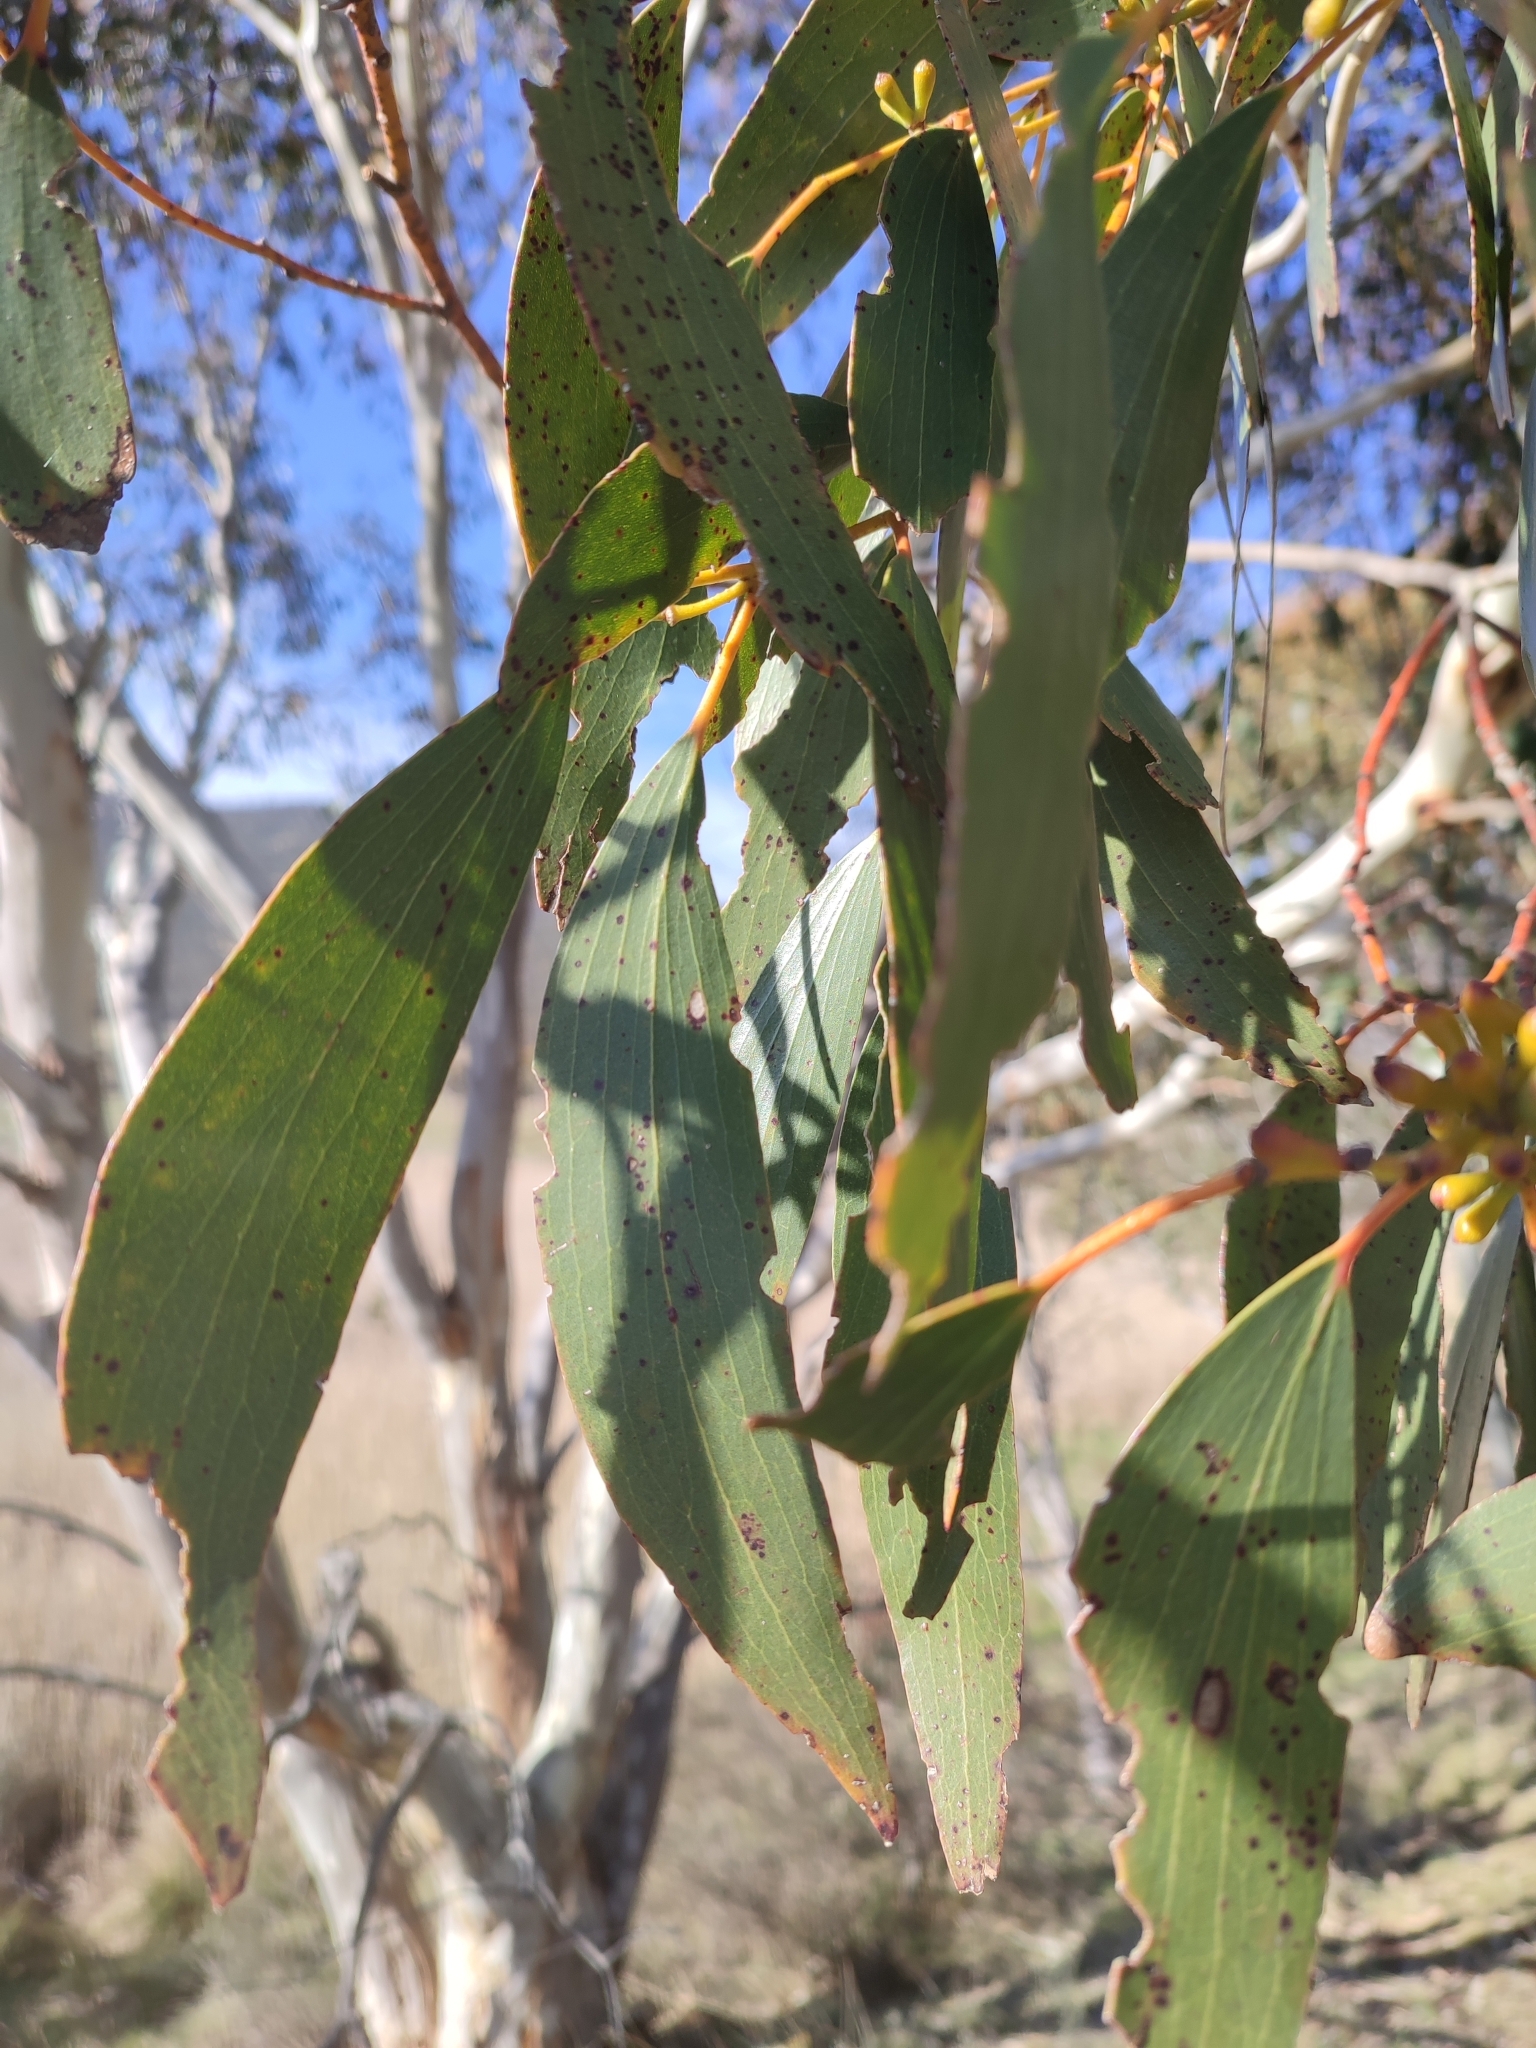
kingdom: Plantae
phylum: Tracheophyta
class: Magnoliopsida
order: Myrtales
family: Myrtaceae
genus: Eucalyptus
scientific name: Eucalyptus pauciflora
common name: Snow gum
